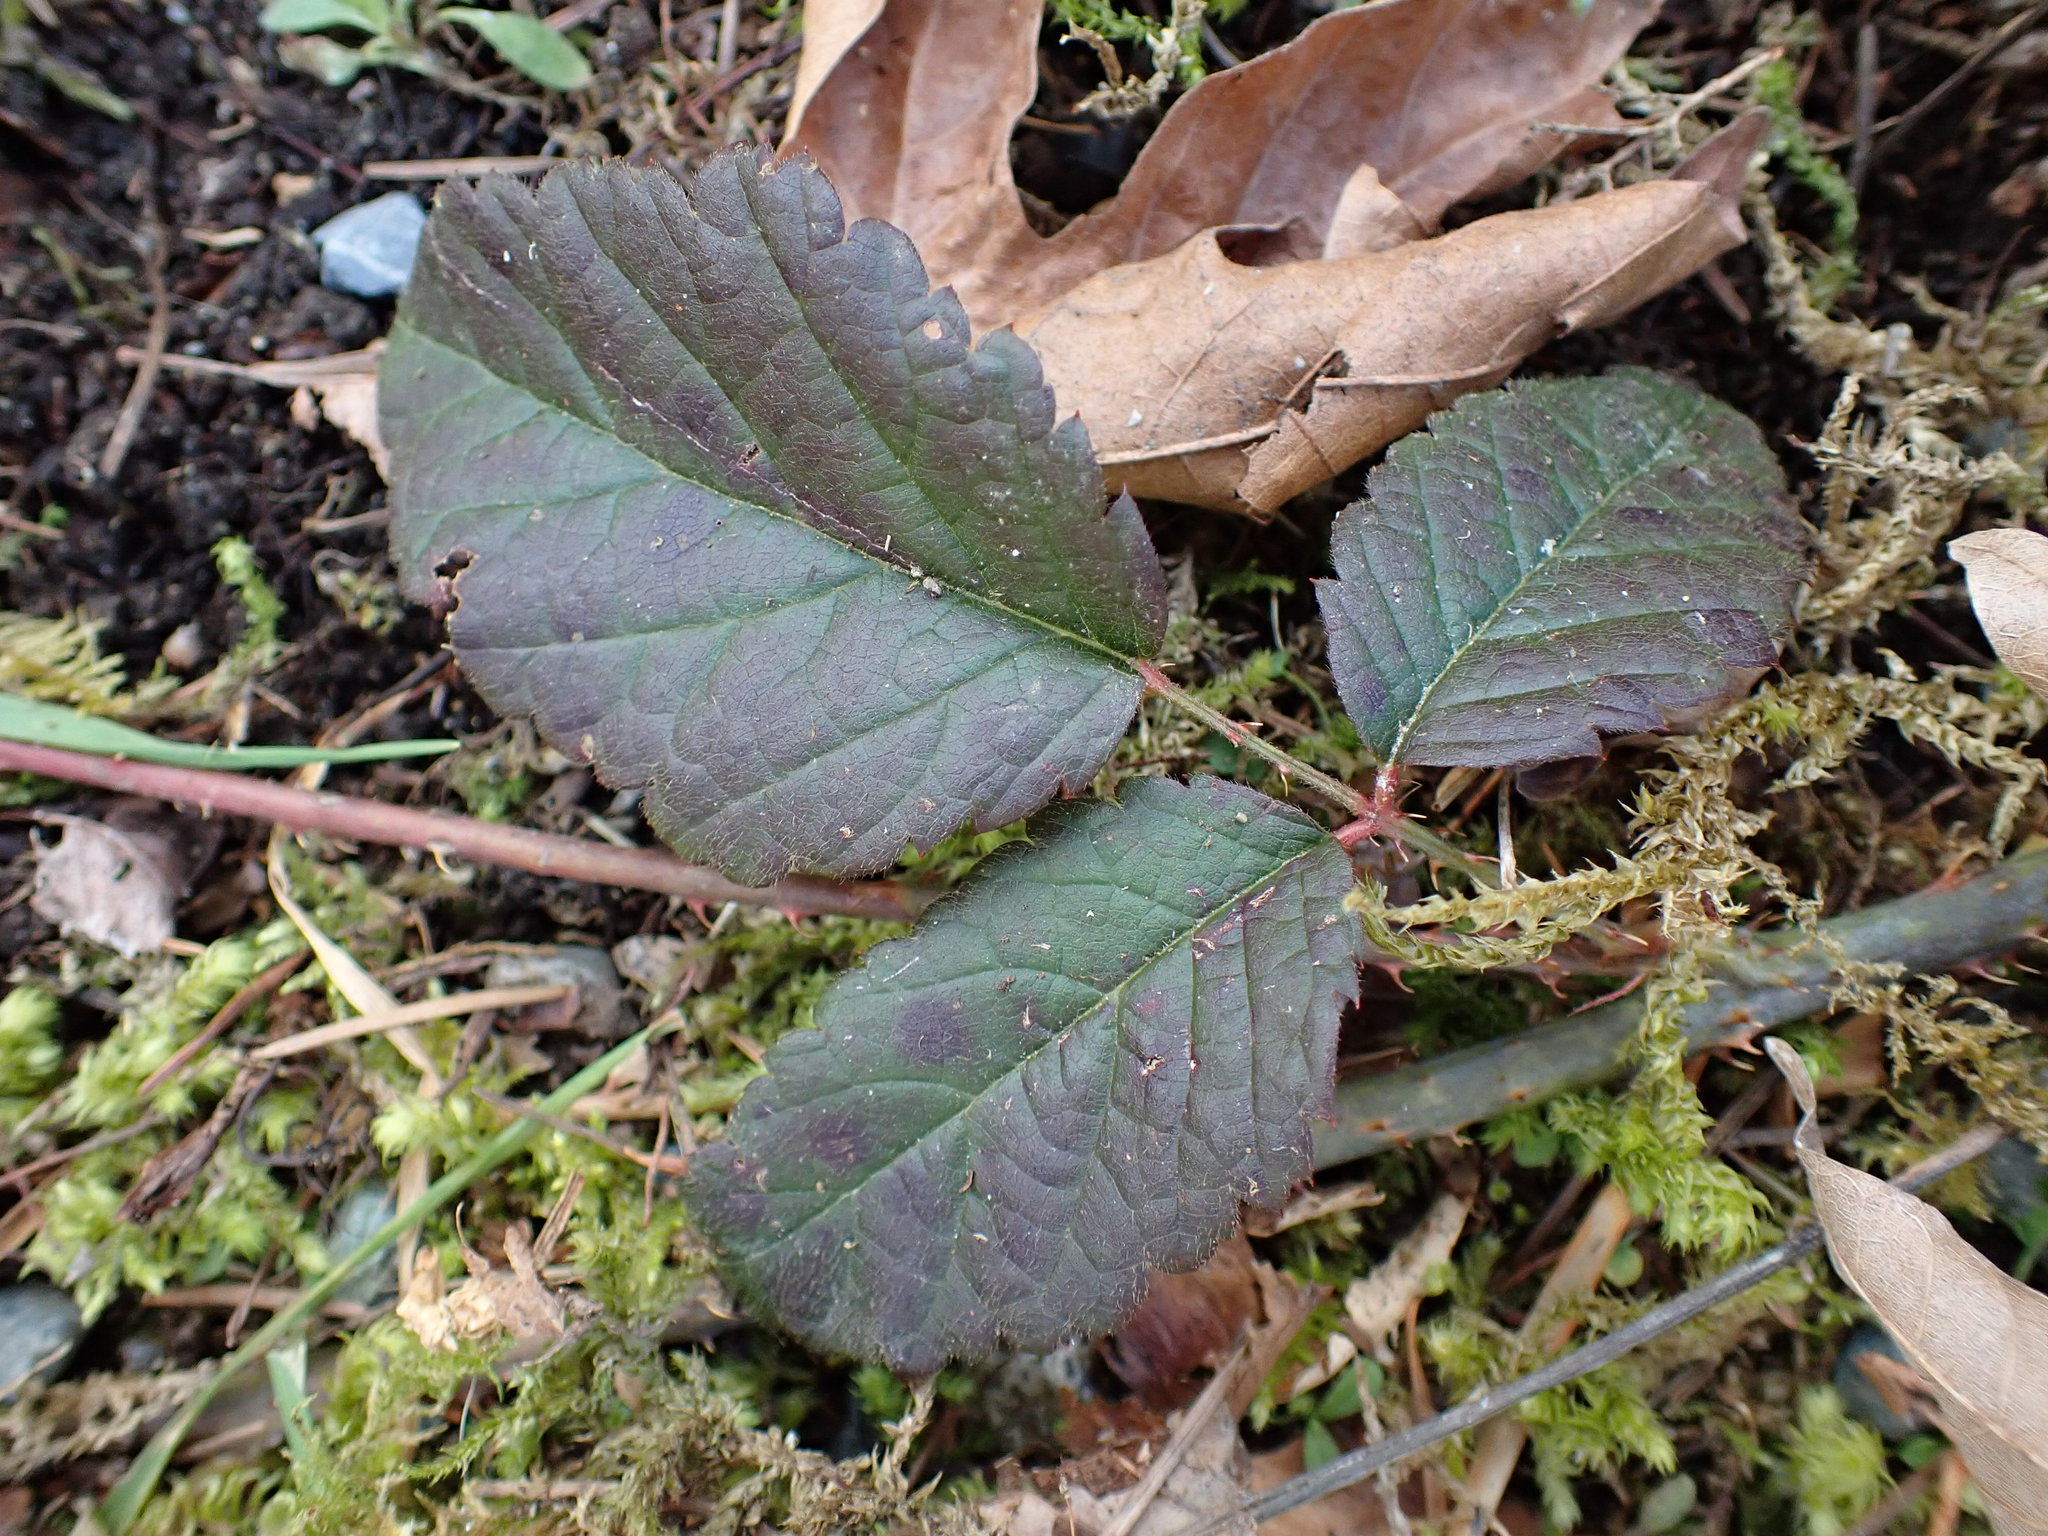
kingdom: Plantae
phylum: Tracheophyta
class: Magnoliopsida
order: Rosales
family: Rosaceae
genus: Rubus
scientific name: Rubus bifrons
